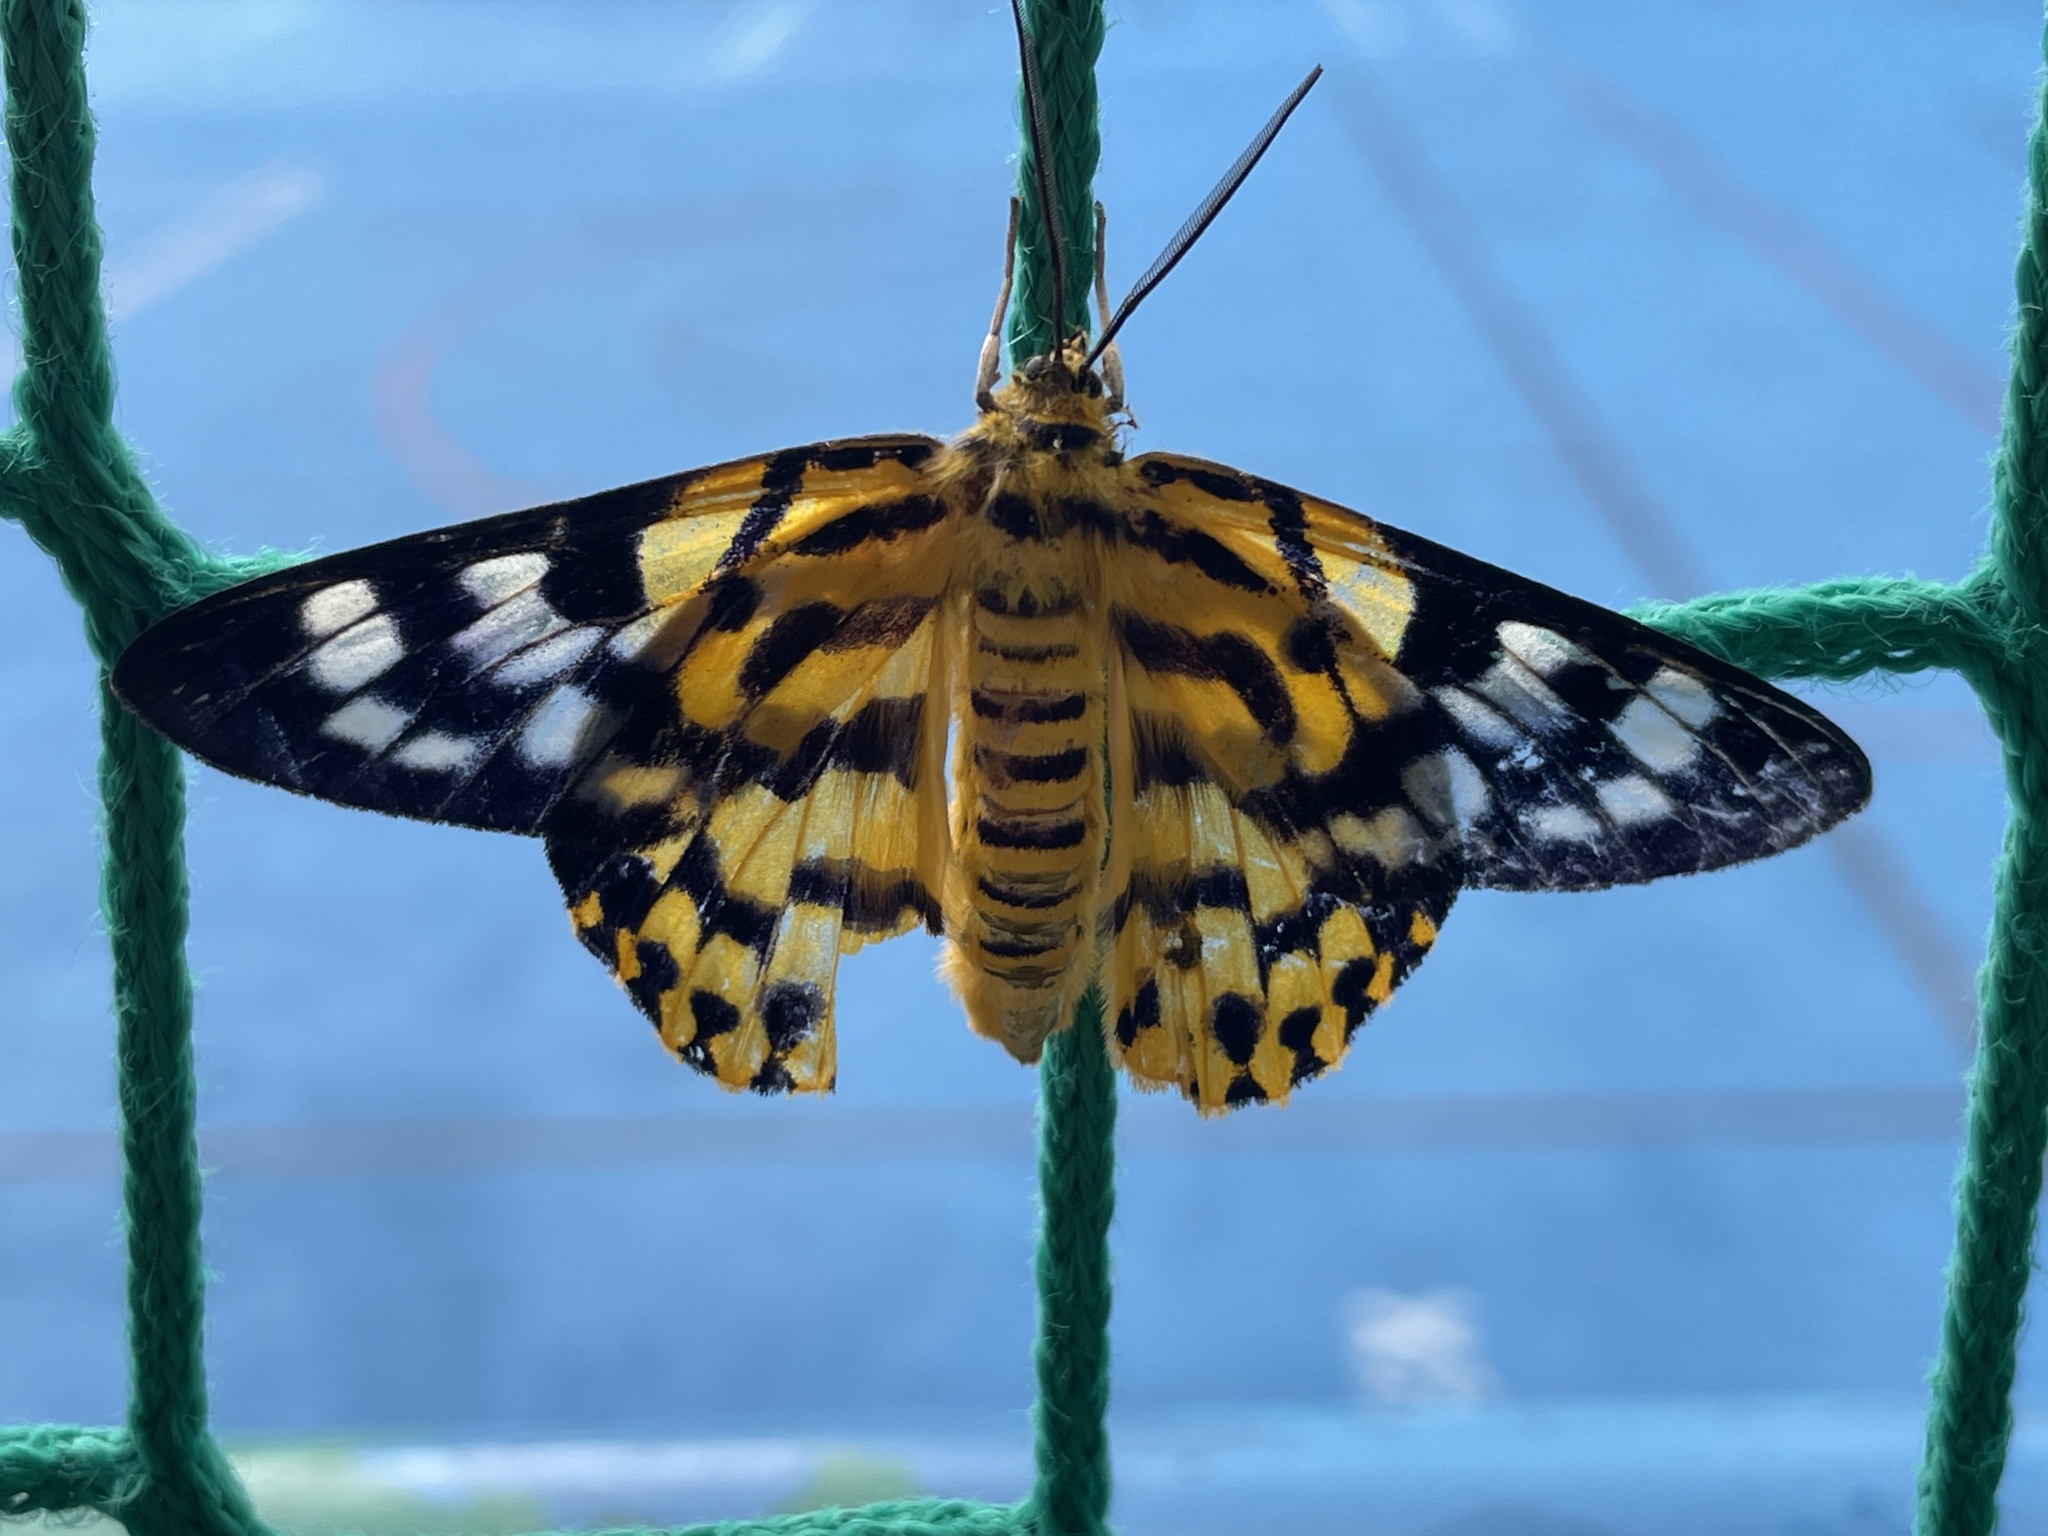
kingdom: Animalia
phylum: Arthropoda
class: Insecta
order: Lepidoptera
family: Geometridae
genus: Dysphania
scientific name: Dysphania militaris
